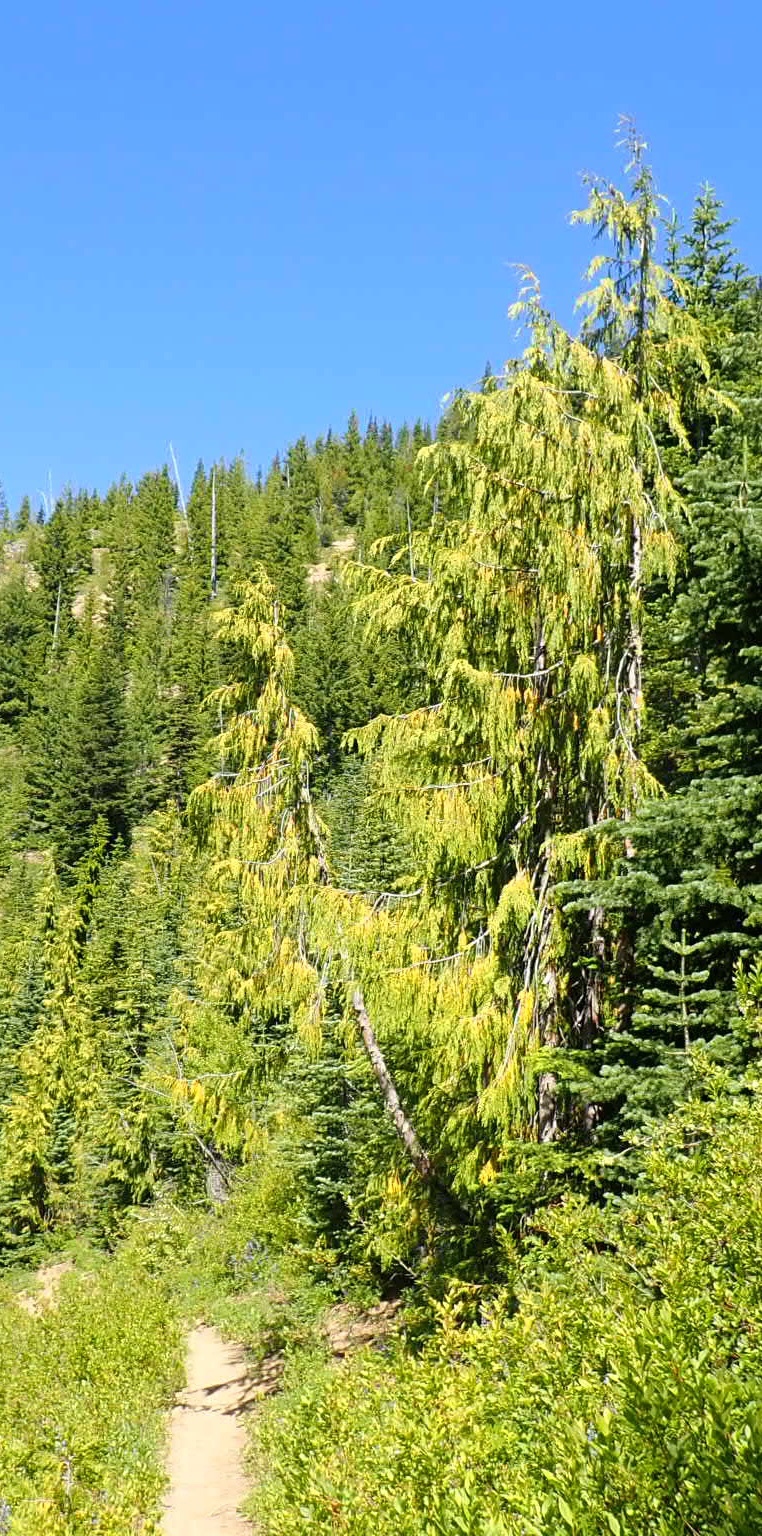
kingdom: Plantae
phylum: Tracheophyta
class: Pinopsida
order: Pinales
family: Cupressaceae
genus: Xanthocyparis
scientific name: Xanthocyparis nootkatensis
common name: Nootka cypress
